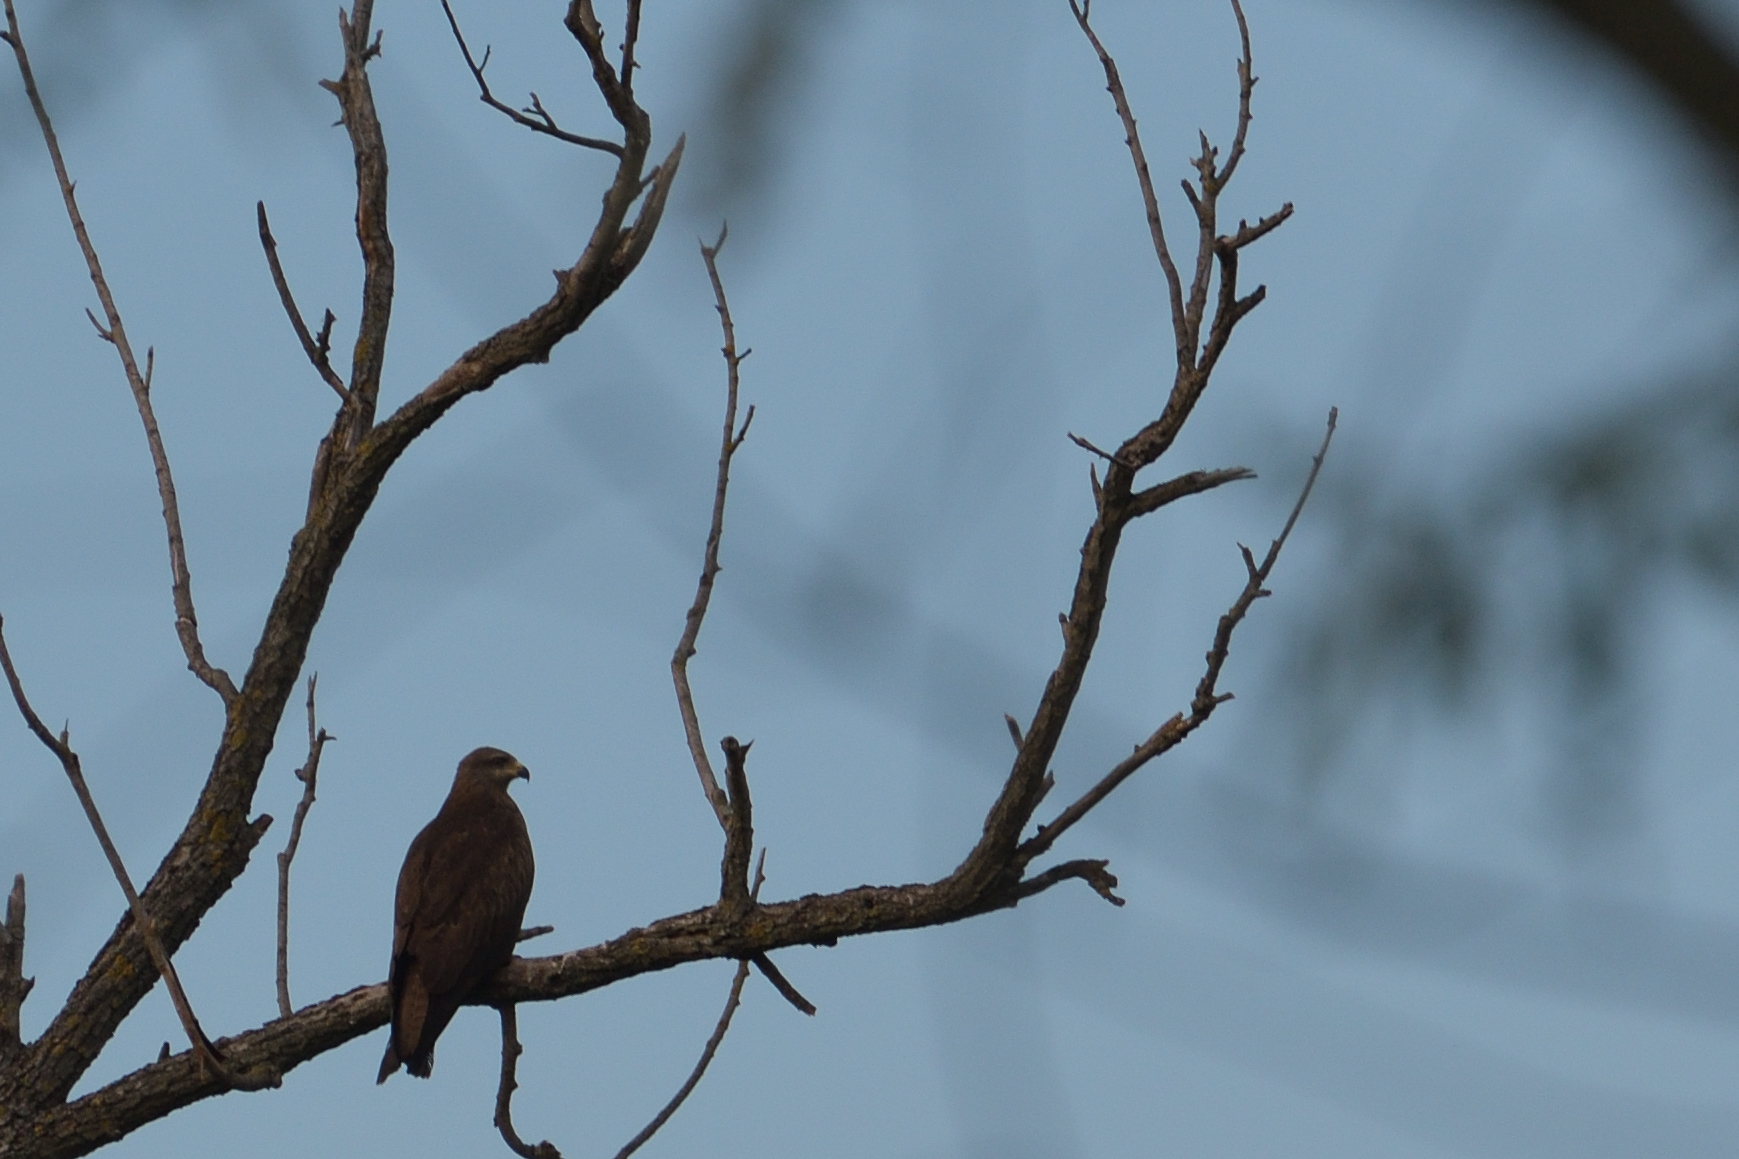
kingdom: Animalia
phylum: Chordata
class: Aves
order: Accipitriformes
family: Accipitridae
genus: Milvus
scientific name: Milvus migrans
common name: Black kite
